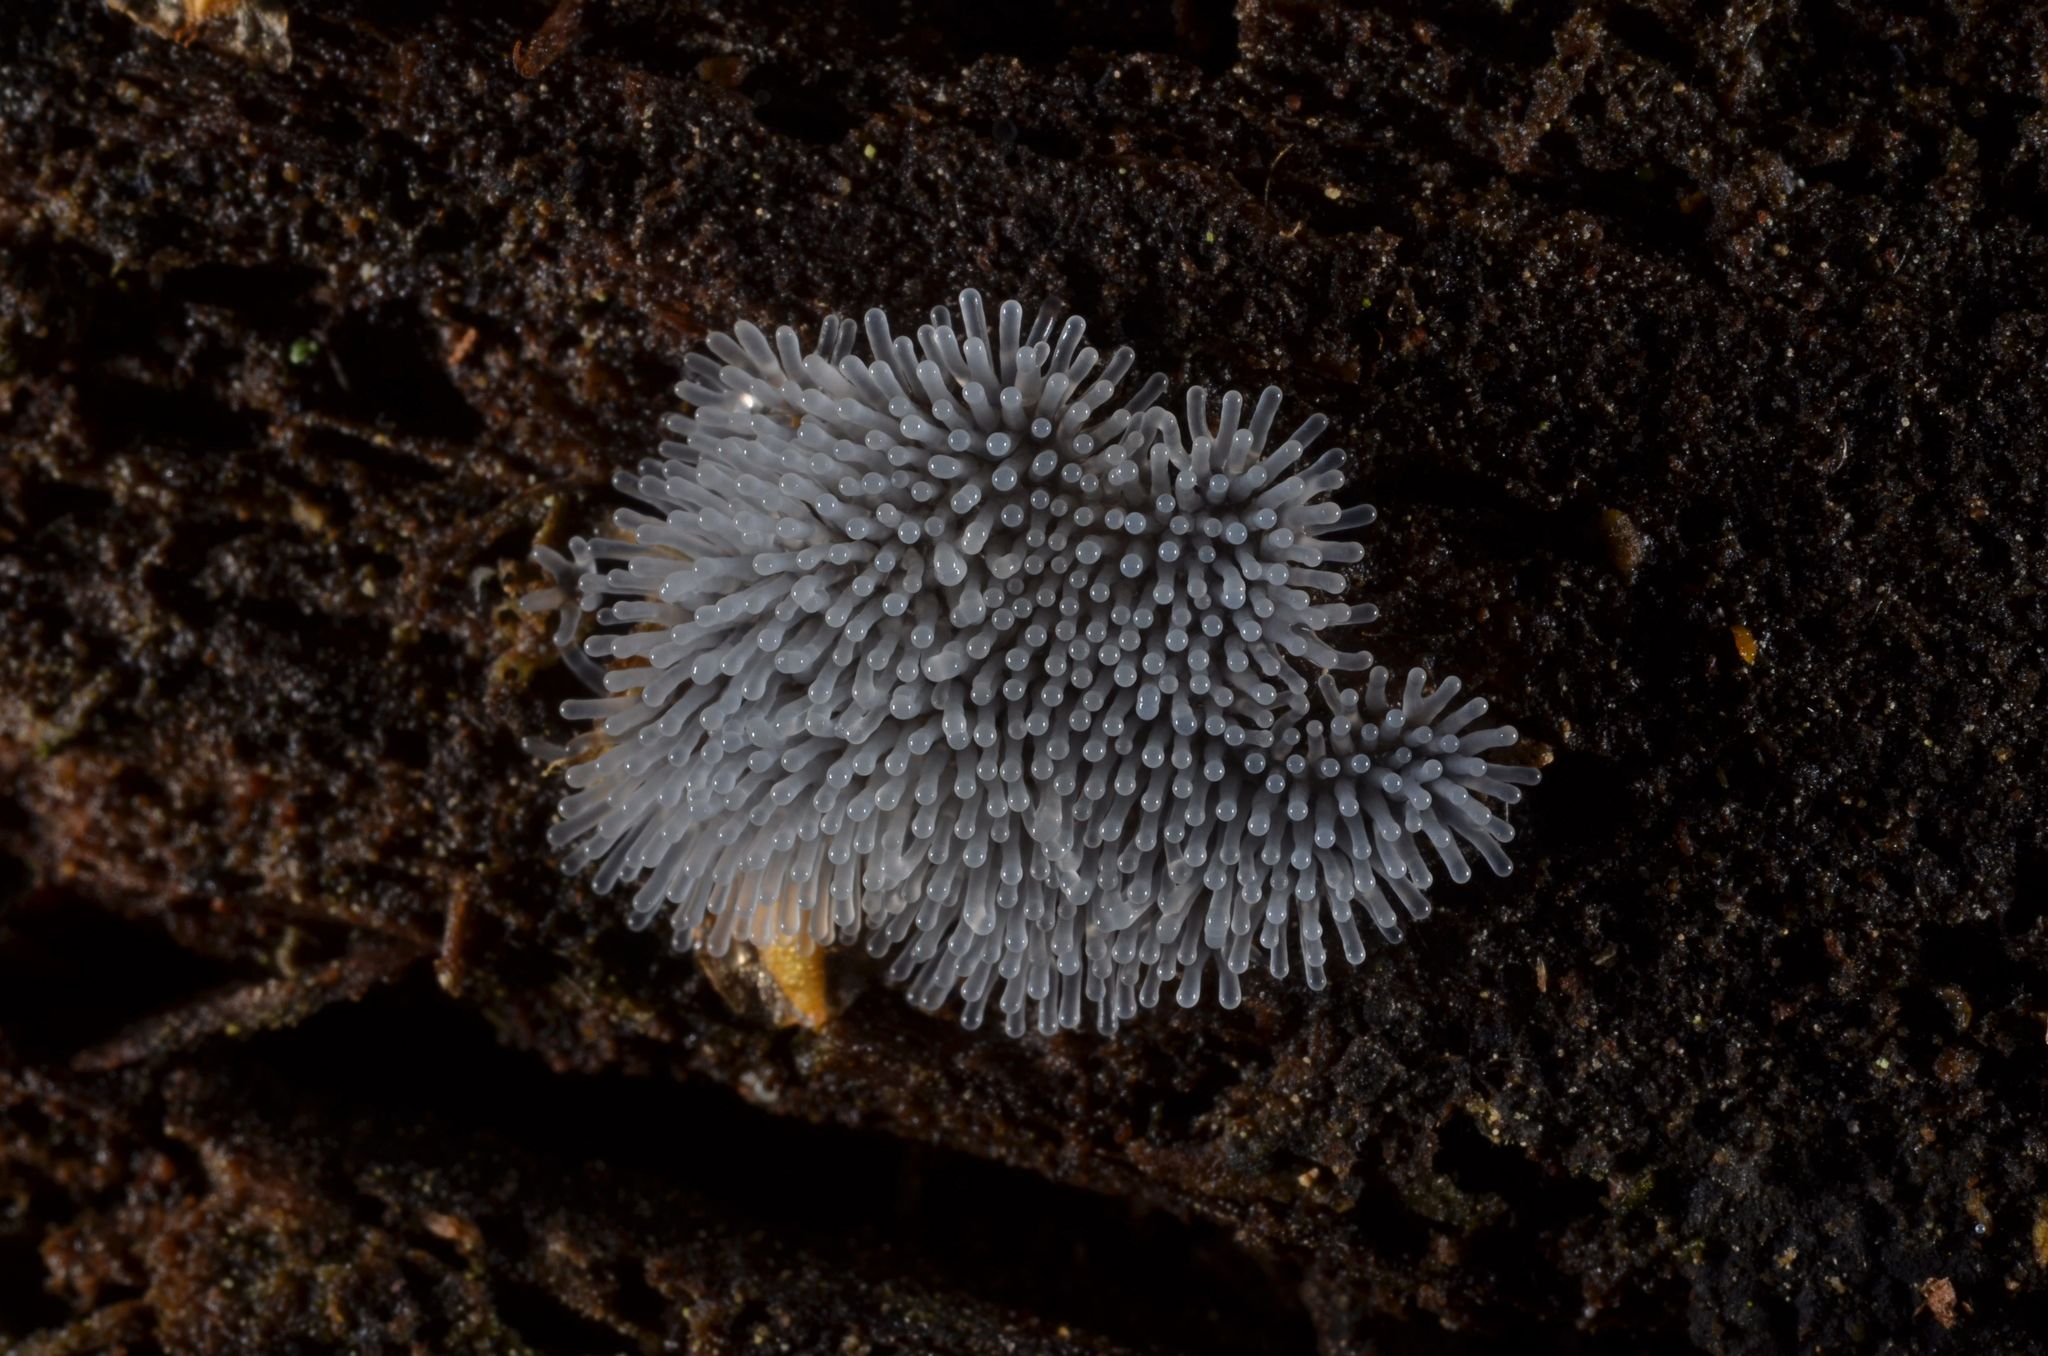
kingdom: Protozoa
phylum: Mycetozoa
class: Protosteliomycetes
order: Ceratiomyxales
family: Ceratiomyxaceae
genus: Ceratiomyxa
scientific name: Ceratiomyxa fruticulosa
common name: Honeycomb coral slime mold
